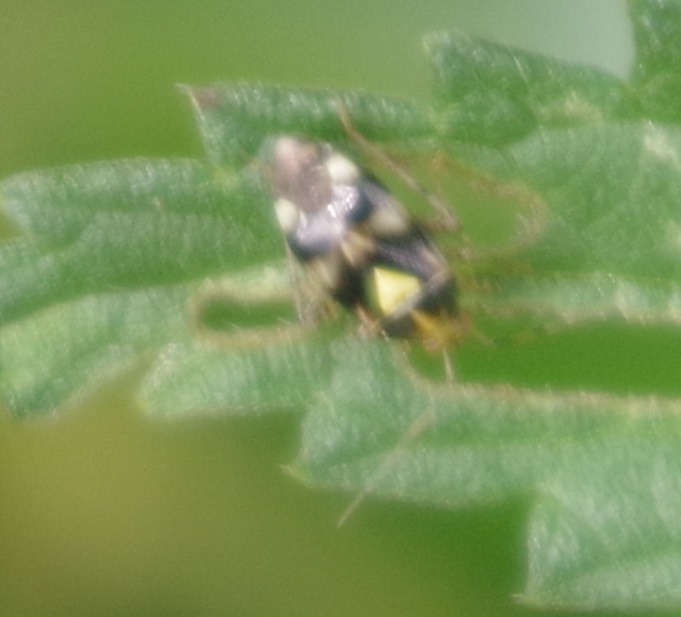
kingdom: Animalia
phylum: Arthropoda
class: Insecta
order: Hemiptera
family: Miridae
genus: Liocoris
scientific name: Liocoris tripustulatus
